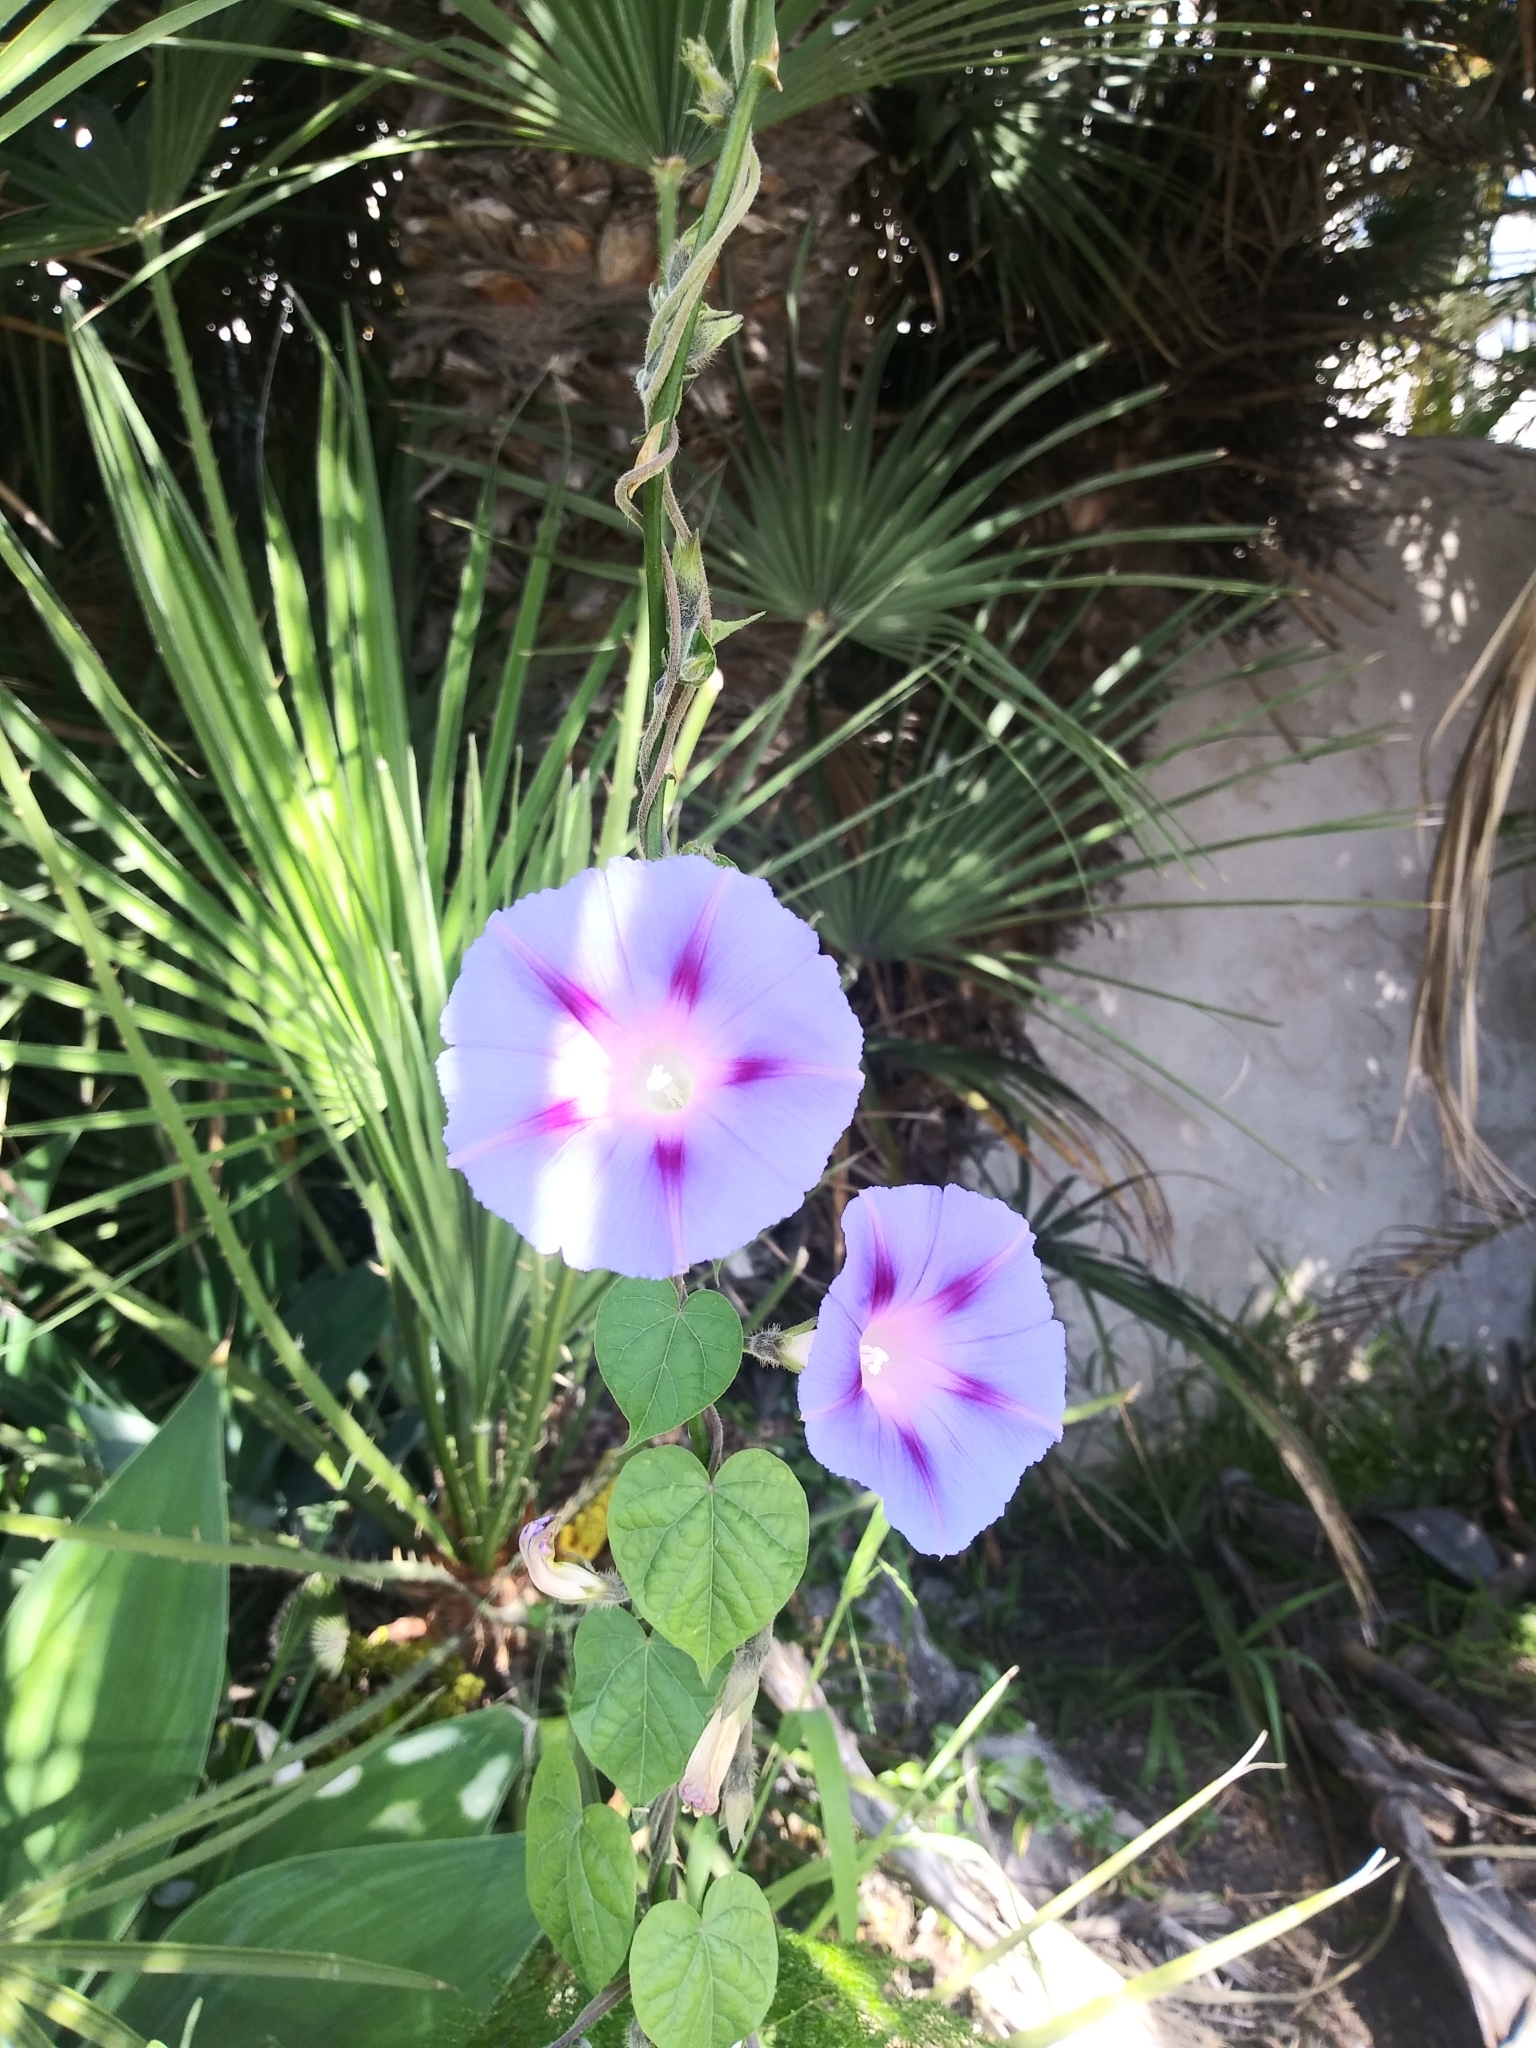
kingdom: Plantae
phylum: Tracheophyta
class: Magnoliopsida
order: Solanales
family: Convolvulaceae
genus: Ipomoea
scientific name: Ipomoea purpurea
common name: Common morning-glory
